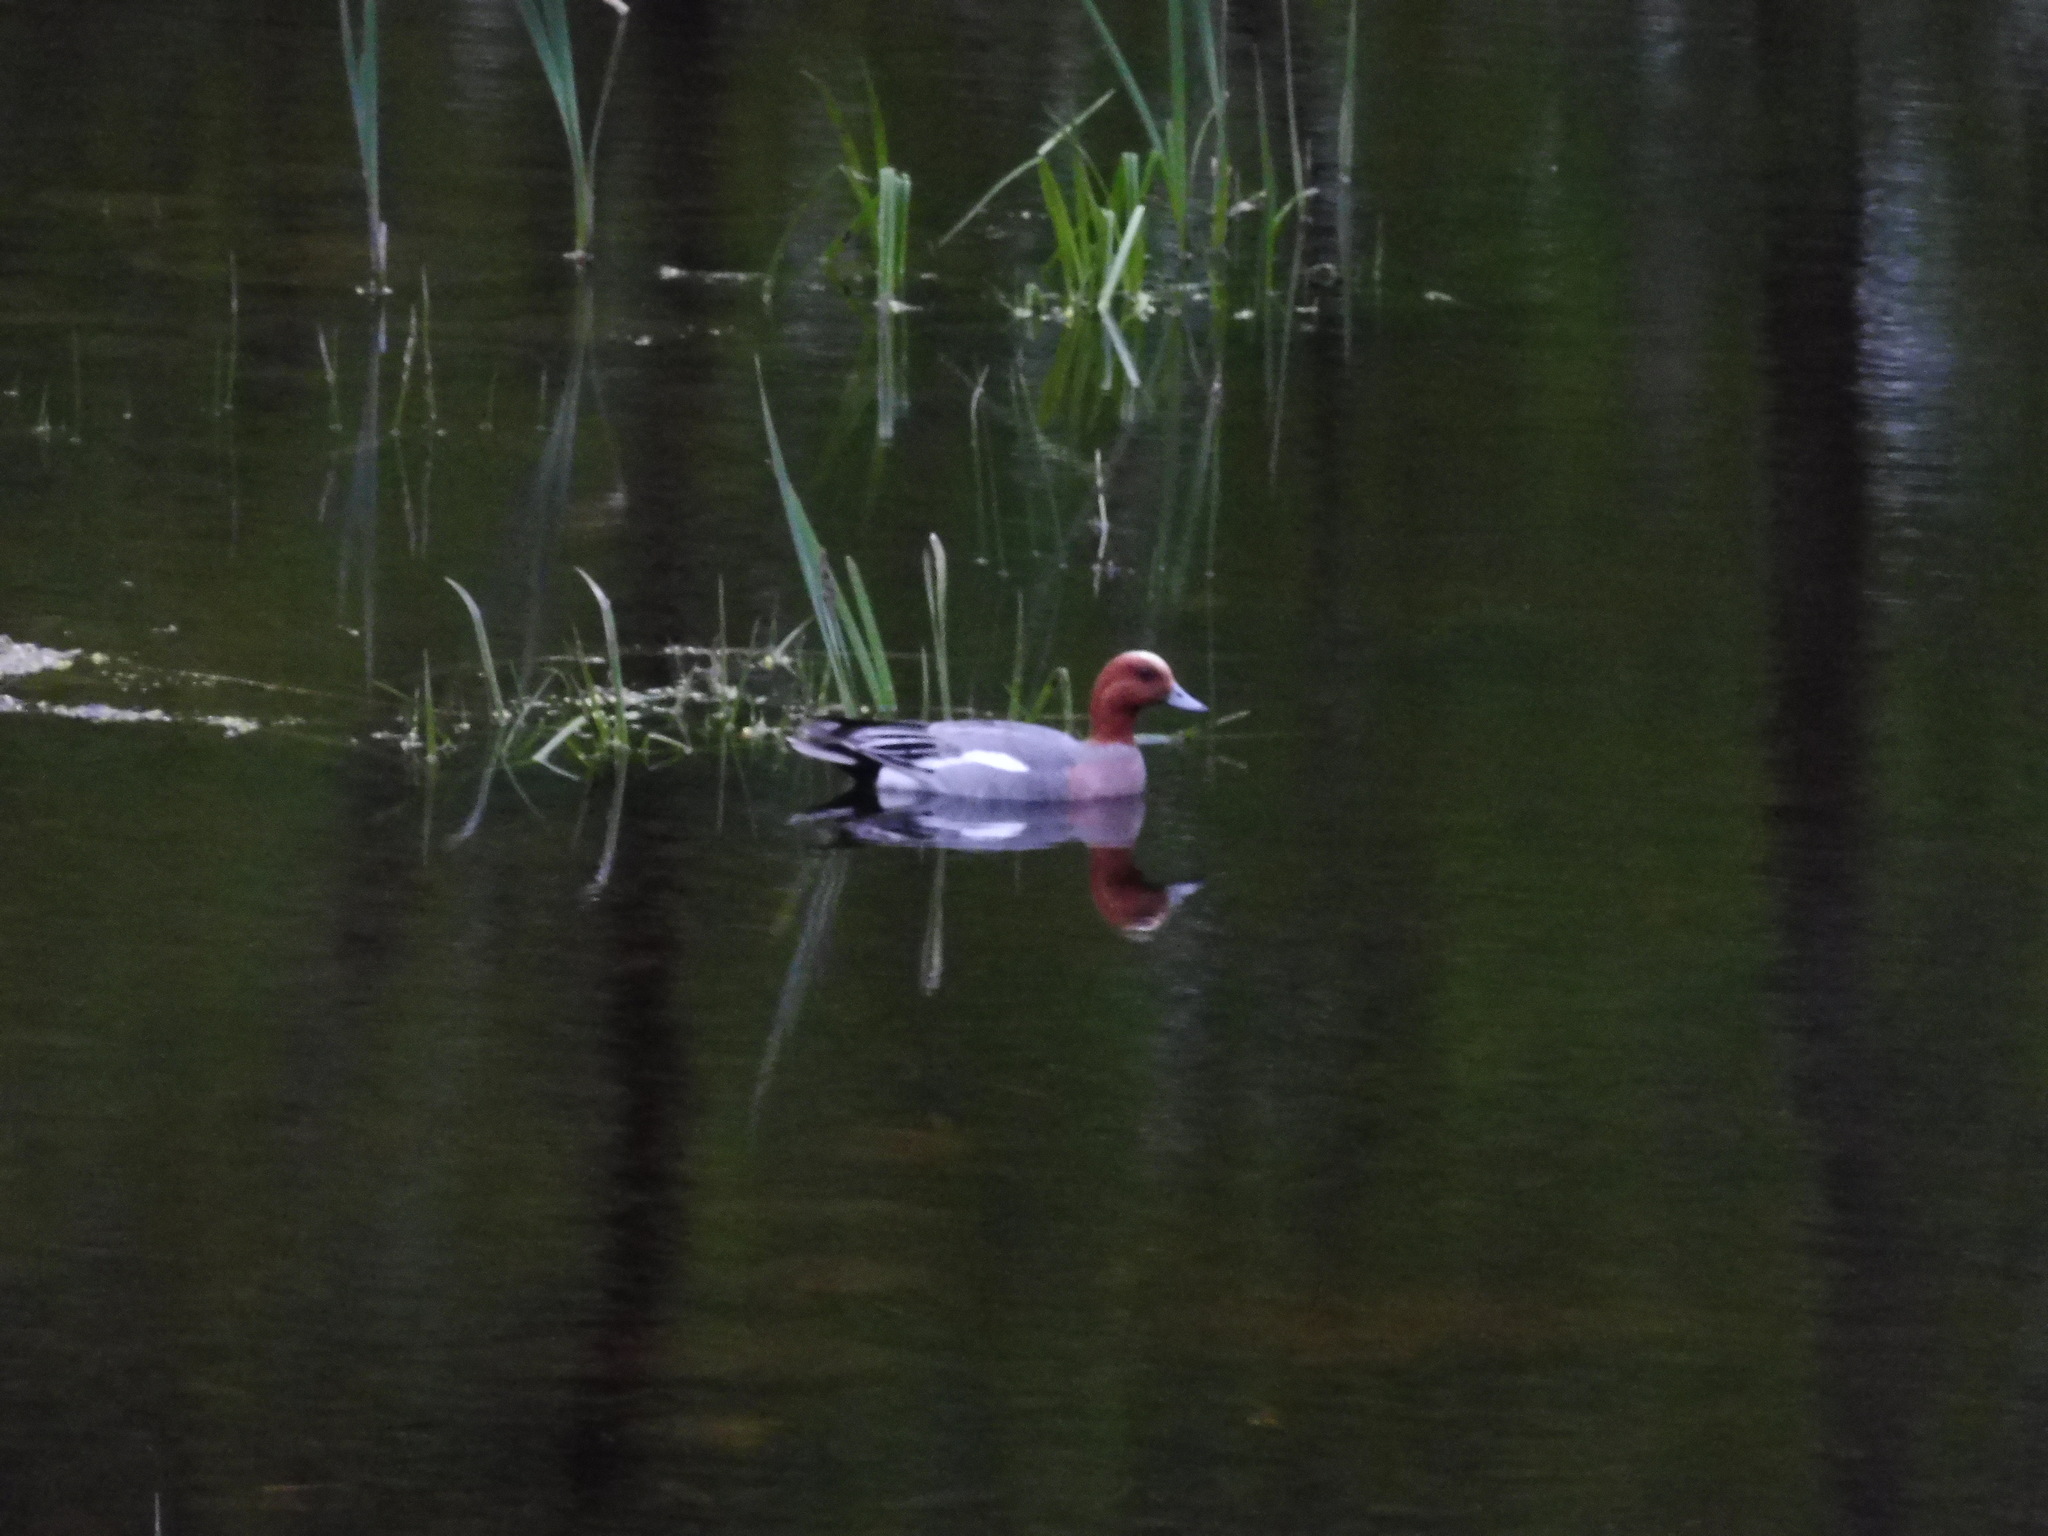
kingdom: Animalia
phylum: Chordata
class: Aves
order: Anseriformes
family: Anatidae
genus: Mareca
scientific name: Mareca penelope
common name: Eurasian wigeon
